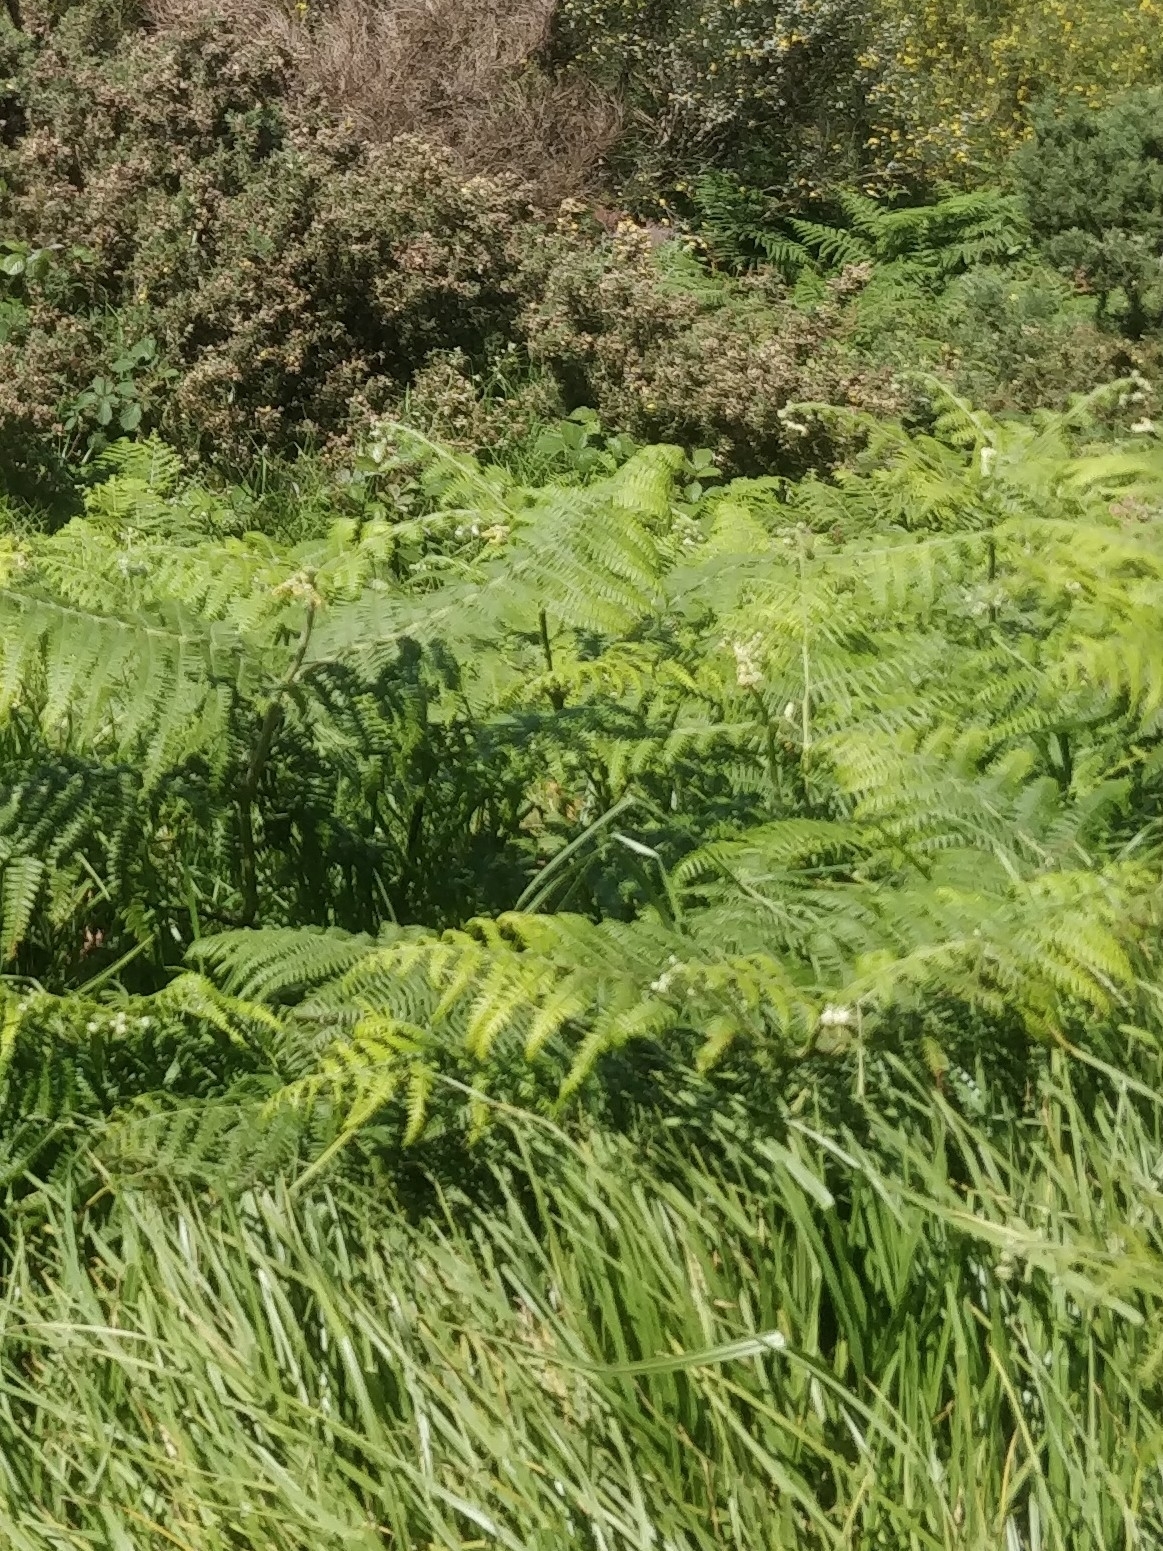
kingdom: Plantae
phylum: Tracheophyta
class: Polypodiopsida
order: Polypodiales
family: Dennstaedtiaceae
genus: Pteridium
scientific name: Pteridium aquilinum
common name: Bracken
